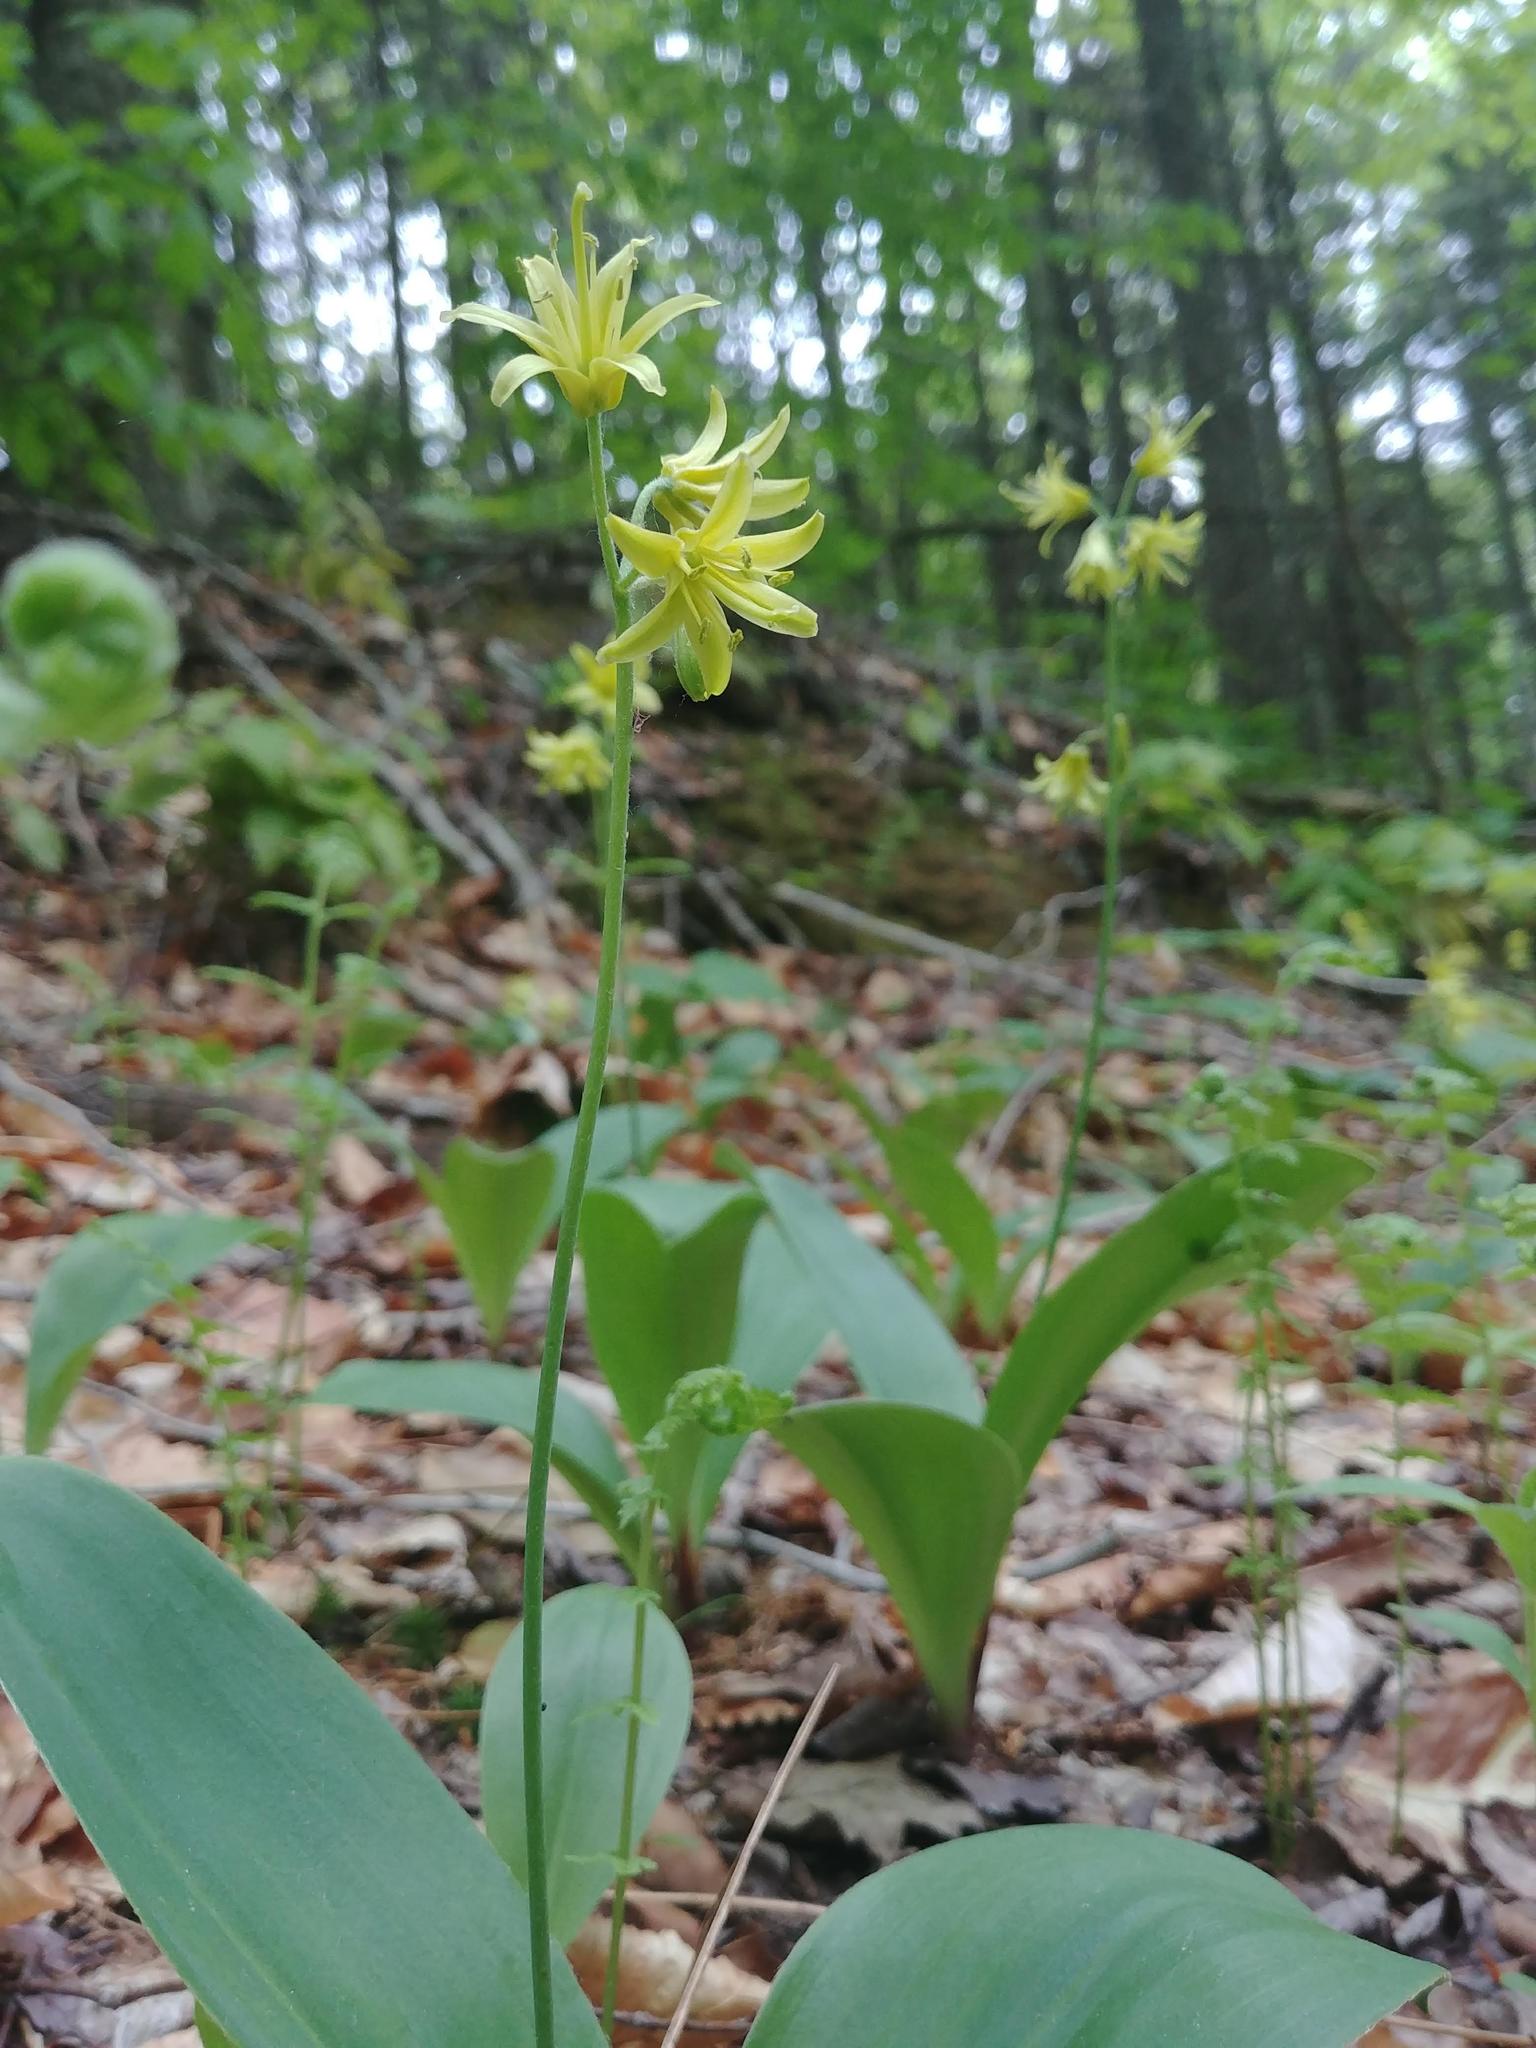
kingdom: Plantae
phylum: Tracheophyta
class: Liliopsida
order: Liliales
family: Liliaceae
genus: Clintonia
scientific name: Clintonia borealis
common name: Yellow clintonia
